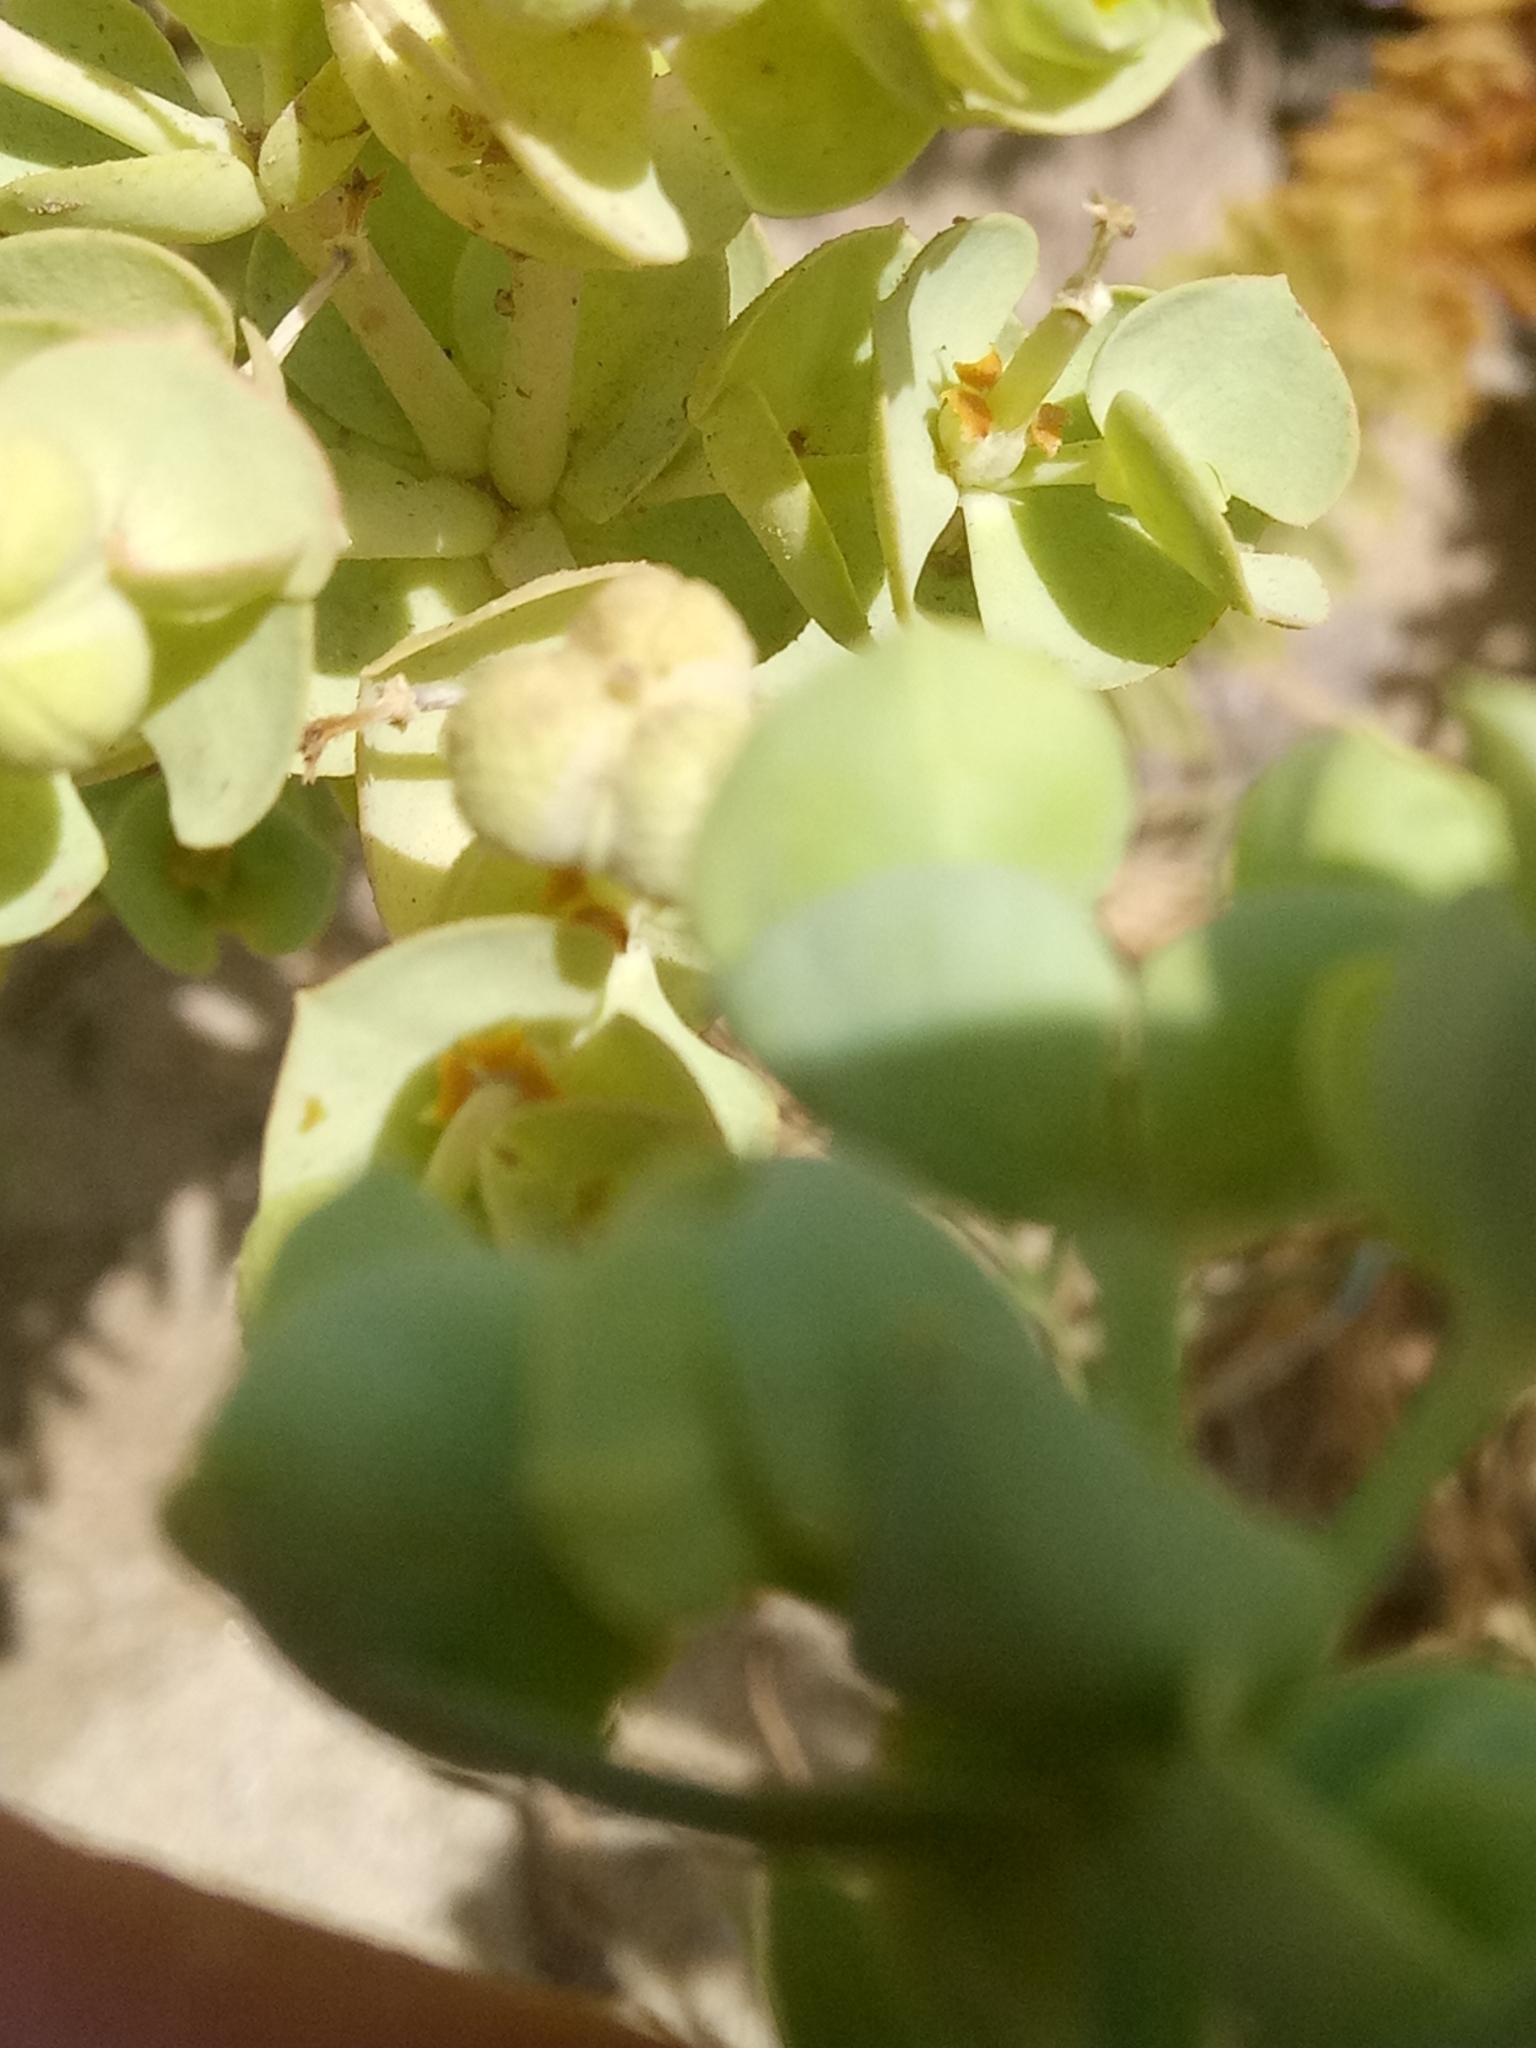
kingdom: Plantae
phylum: Tracheophyta
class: Magnoliopsida
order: Malpighiales
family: Euphorbiaceae
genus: Euphorbia
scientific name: Euphorbia paralias
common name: Sea spurge
